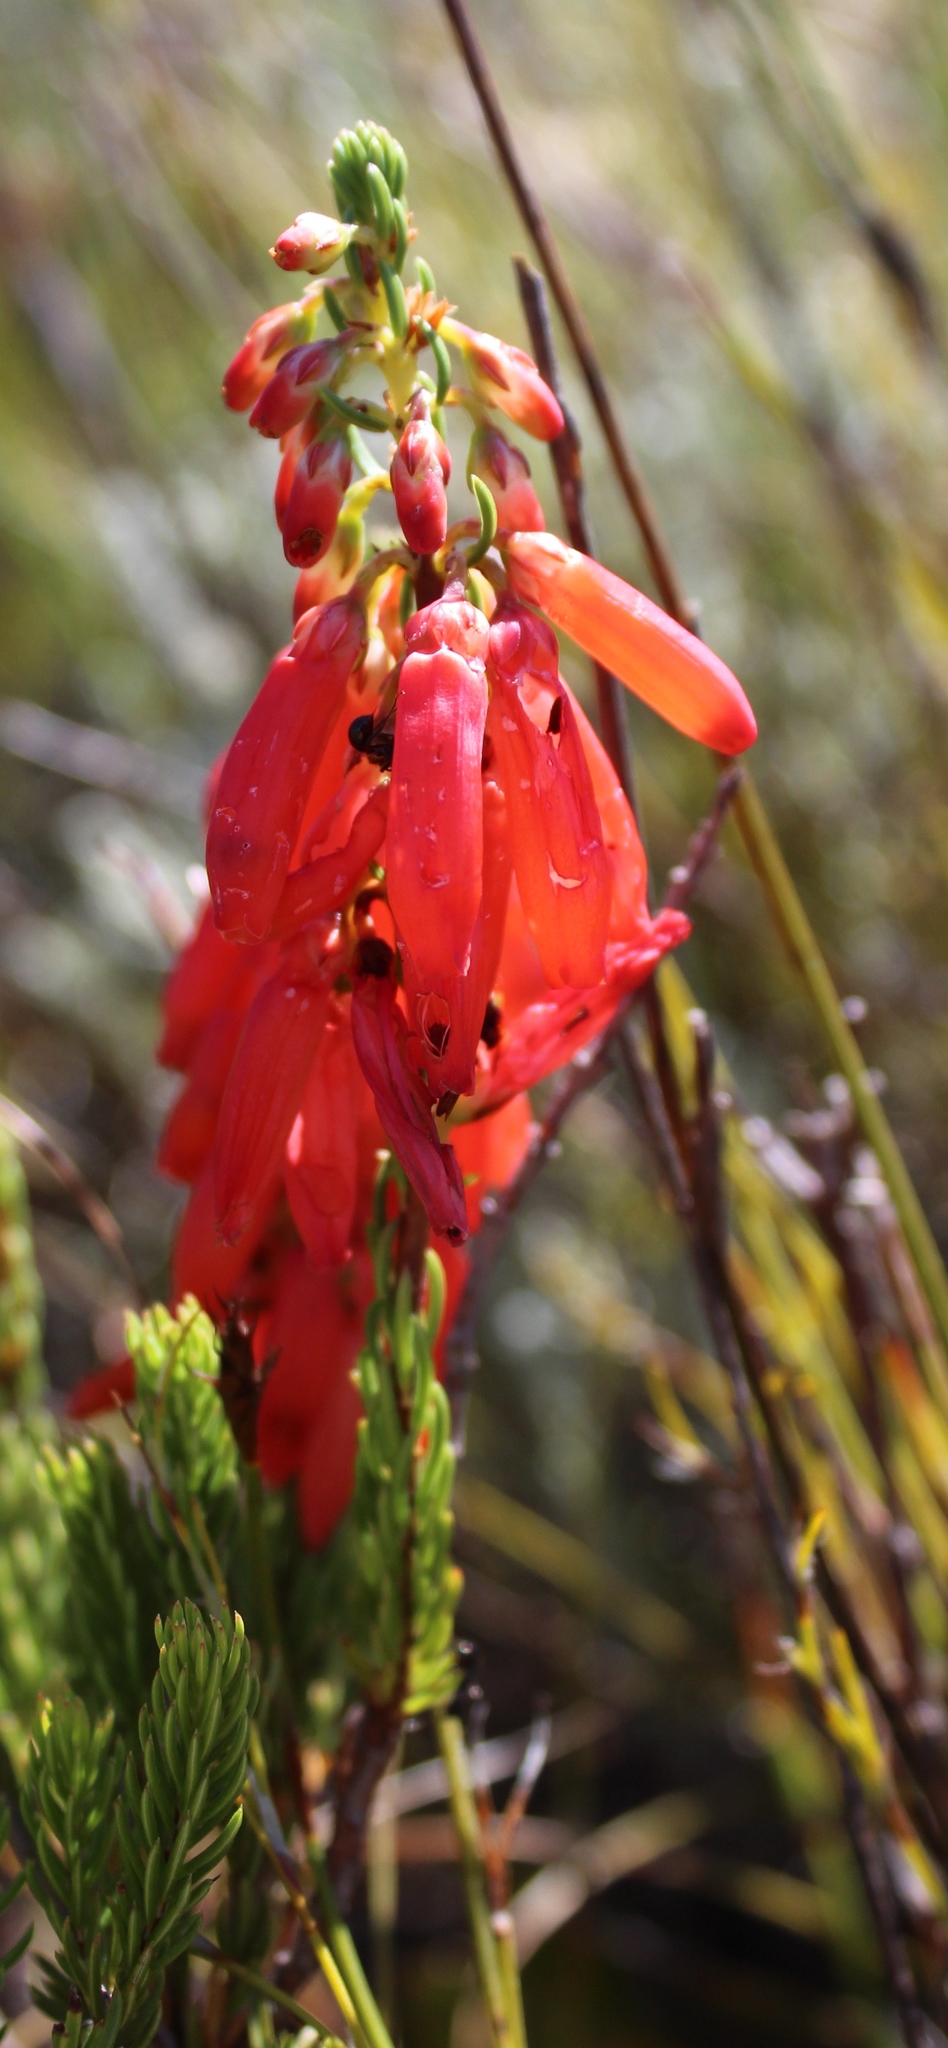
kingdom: Plantae
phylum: Tracheophyta
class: Magnoliopsida
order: Ericales
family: Ericaceae
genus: Erica
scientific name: Erica mammosa
